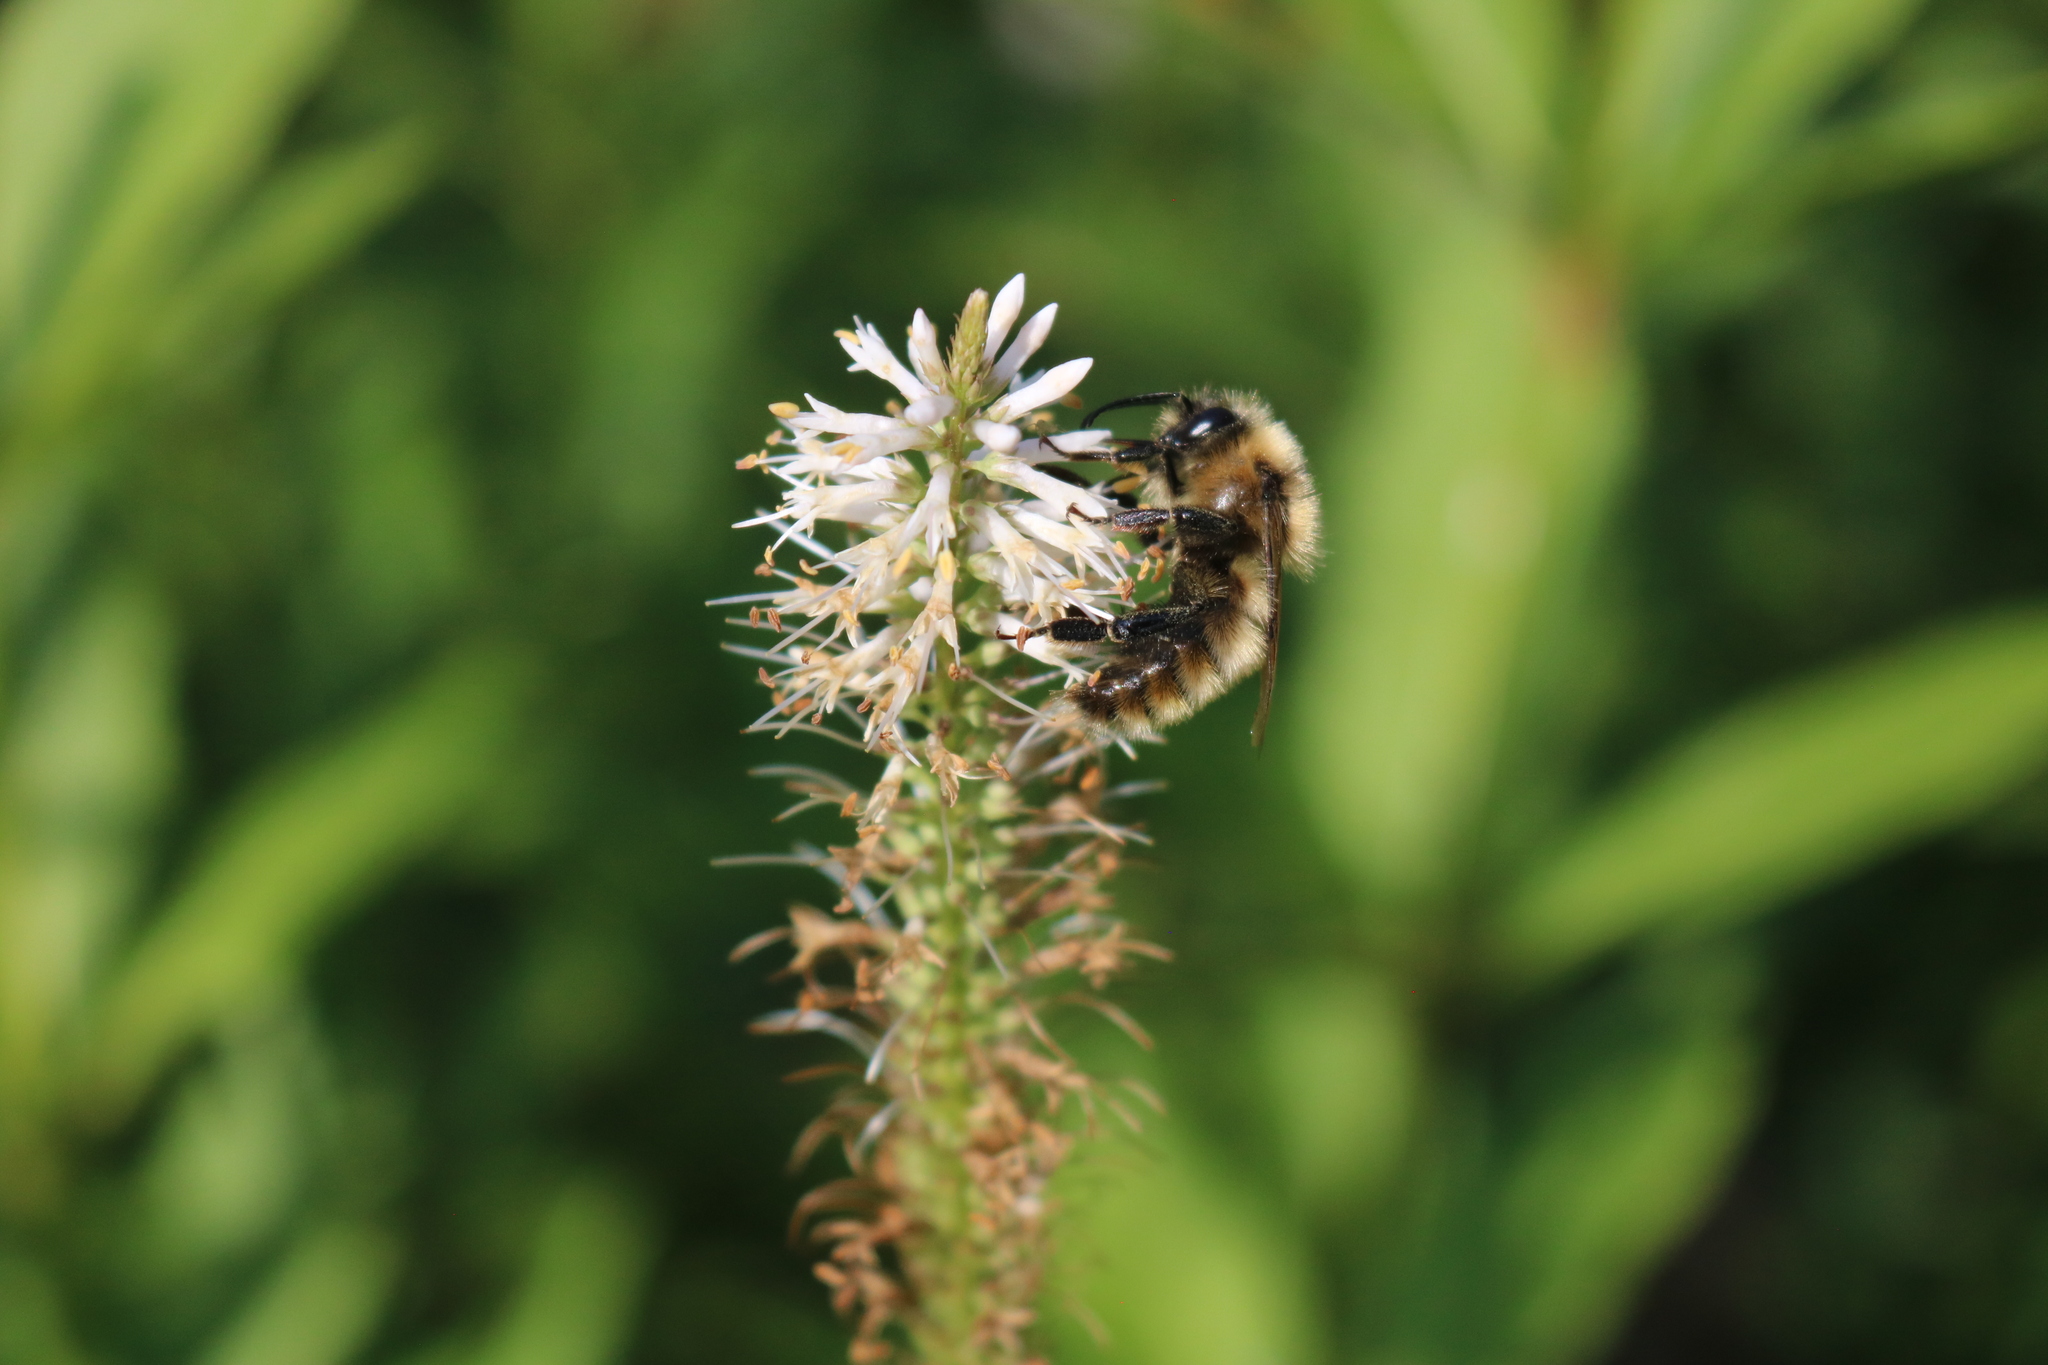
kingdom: Animalia
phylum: Arthropoda
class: Insecta
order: Hymenoptera
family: Apidae
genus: Bombus
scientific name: Bombus rufocinctus
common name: Red-belted bumble bee
